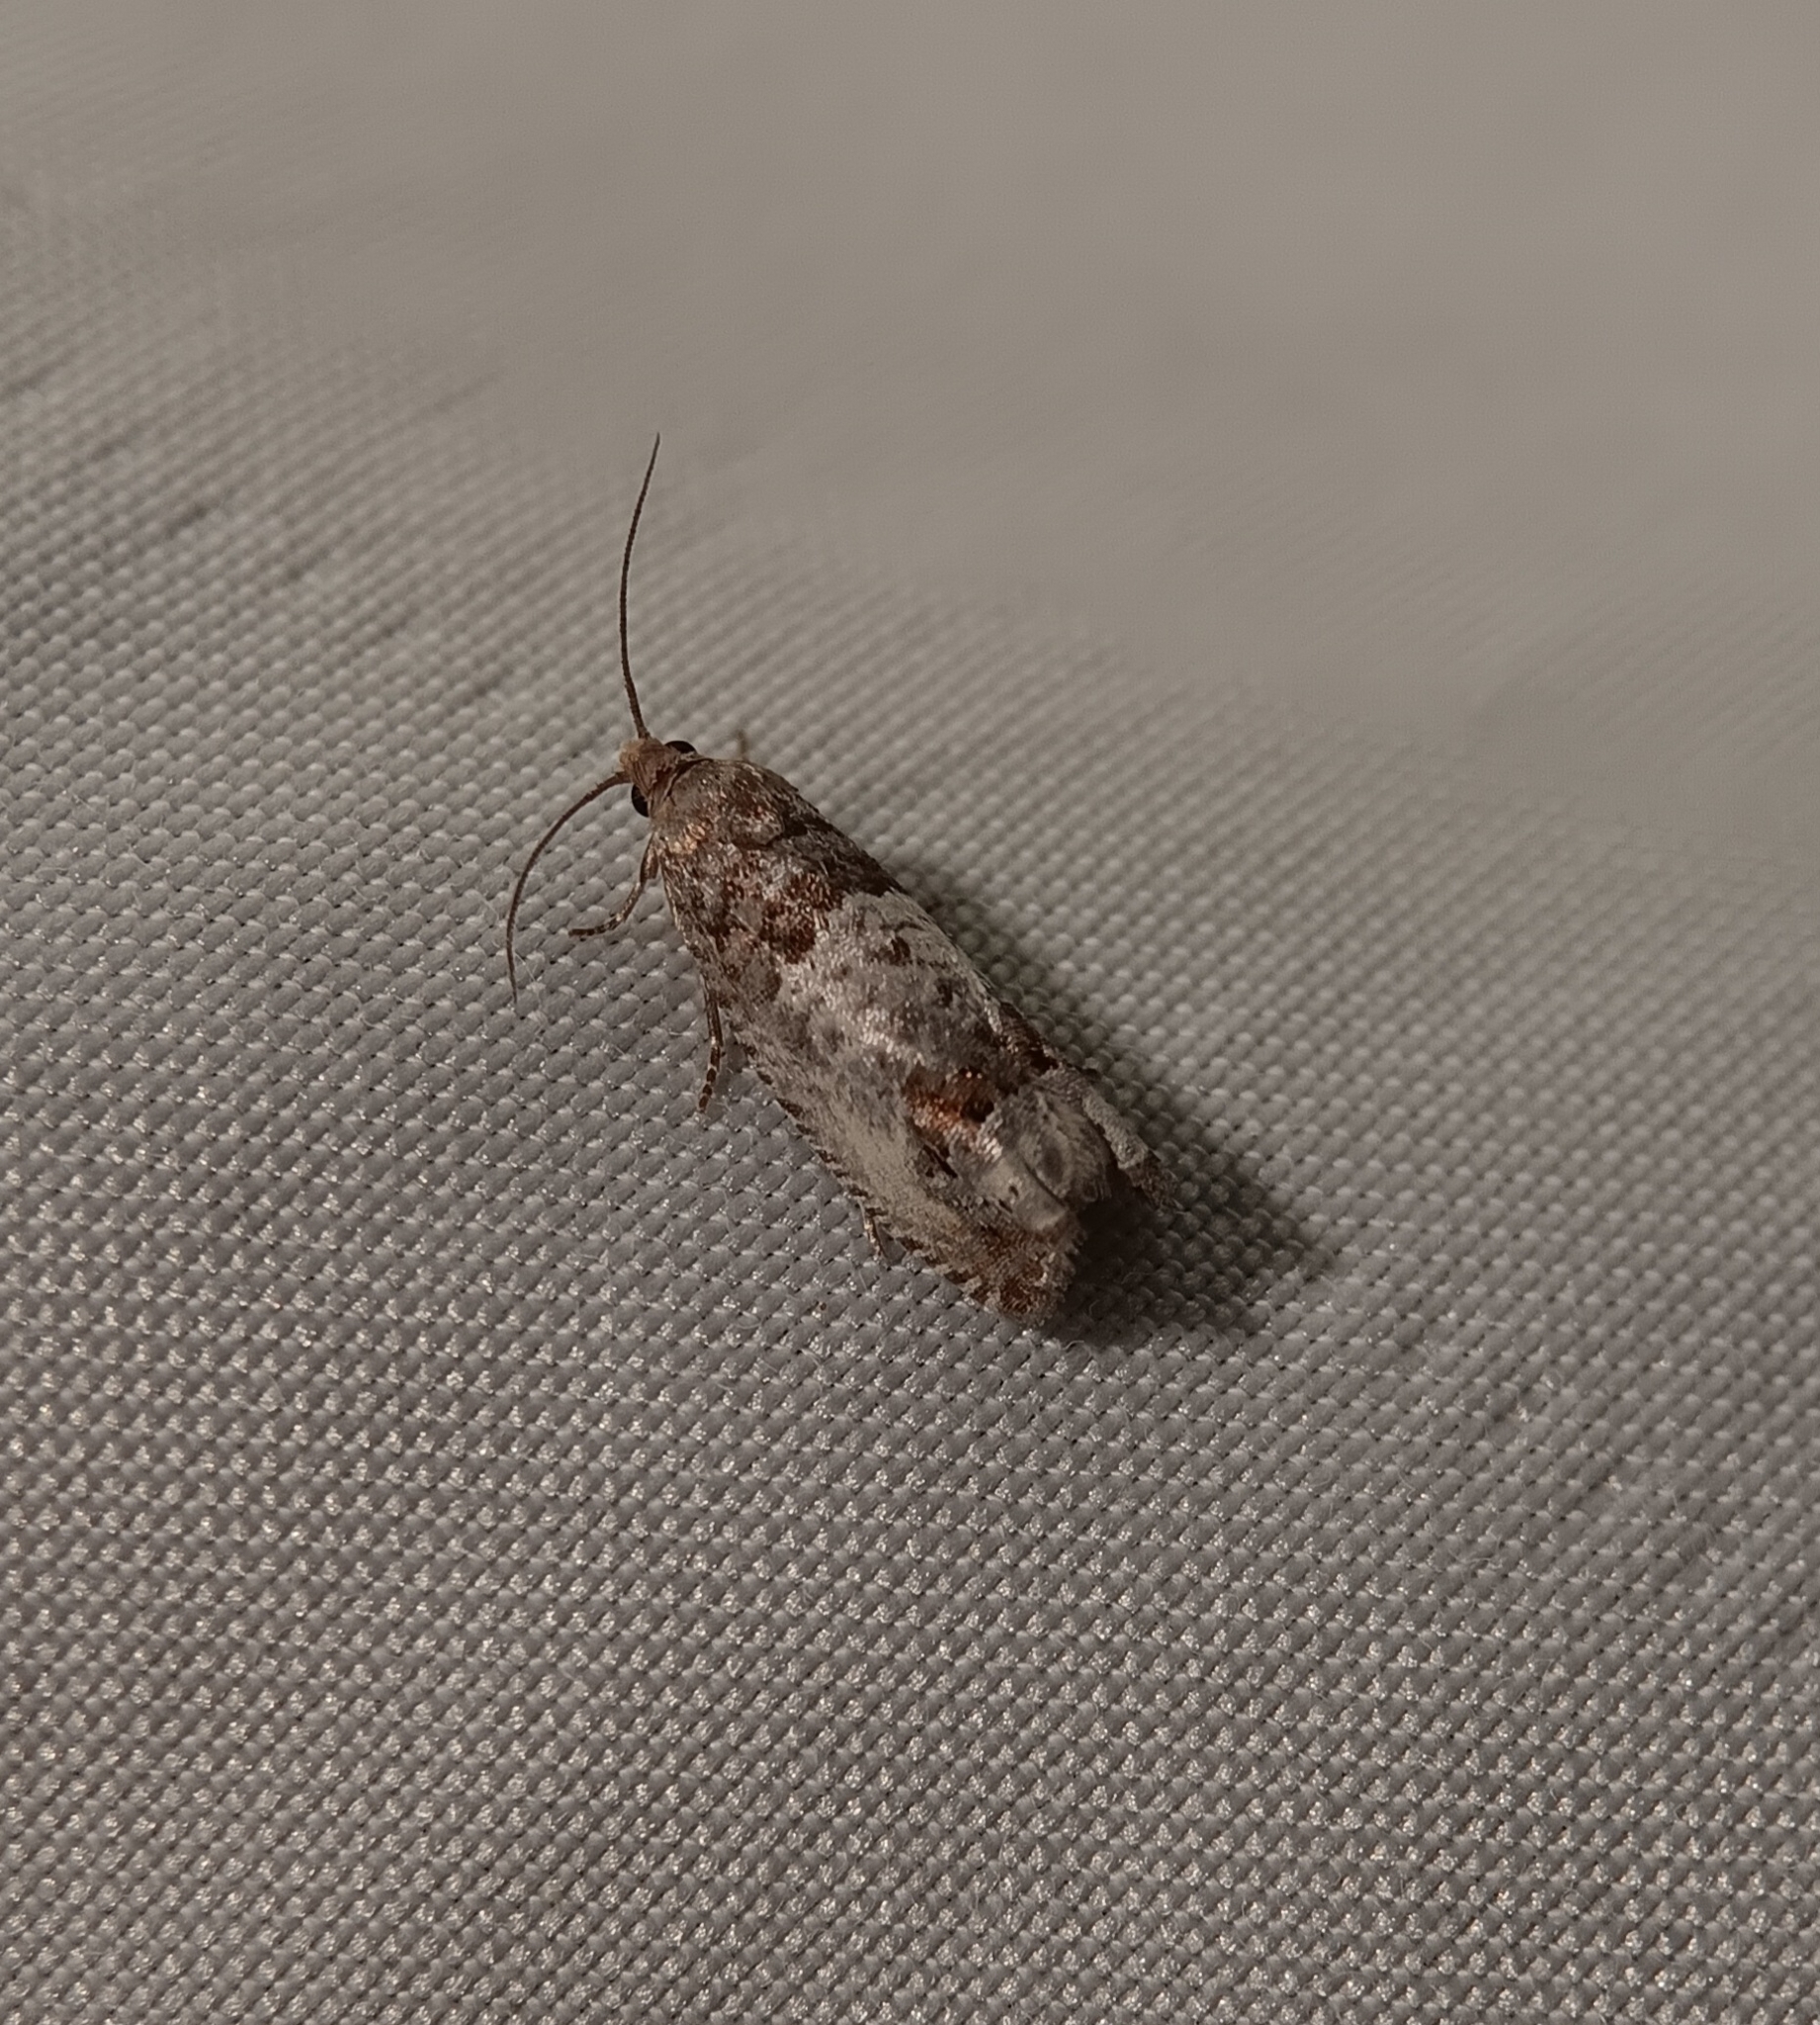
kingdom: Animalia
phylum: Arthropoda
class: Insecta
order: Lepidoptera
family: Tortricidae
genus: Notocelia
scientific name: Notocelia rosaecolana
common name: Common rose bell
